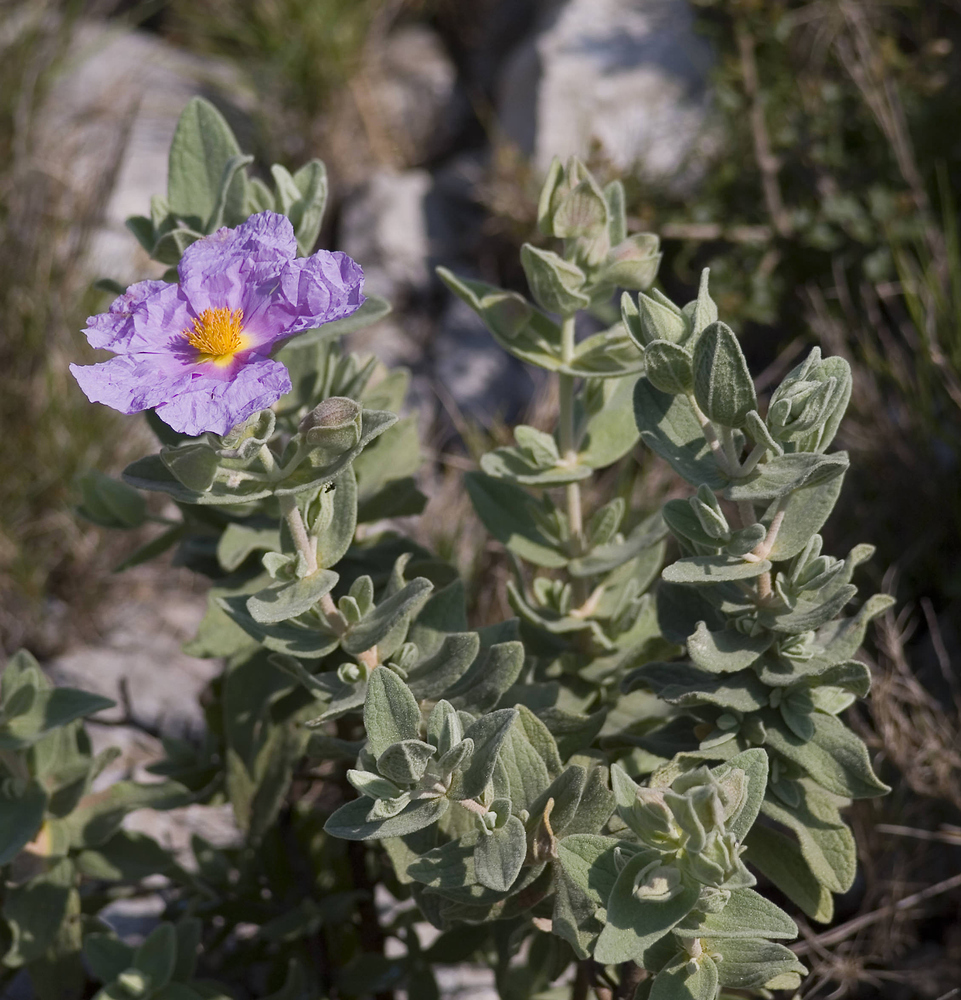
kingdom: Plantae
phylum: Tracheophyta
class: Magnoliopsida
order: Malvales
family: Cistaceae
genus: Cistus
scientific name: Cistus albidus
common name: White-leaf rock-rose
